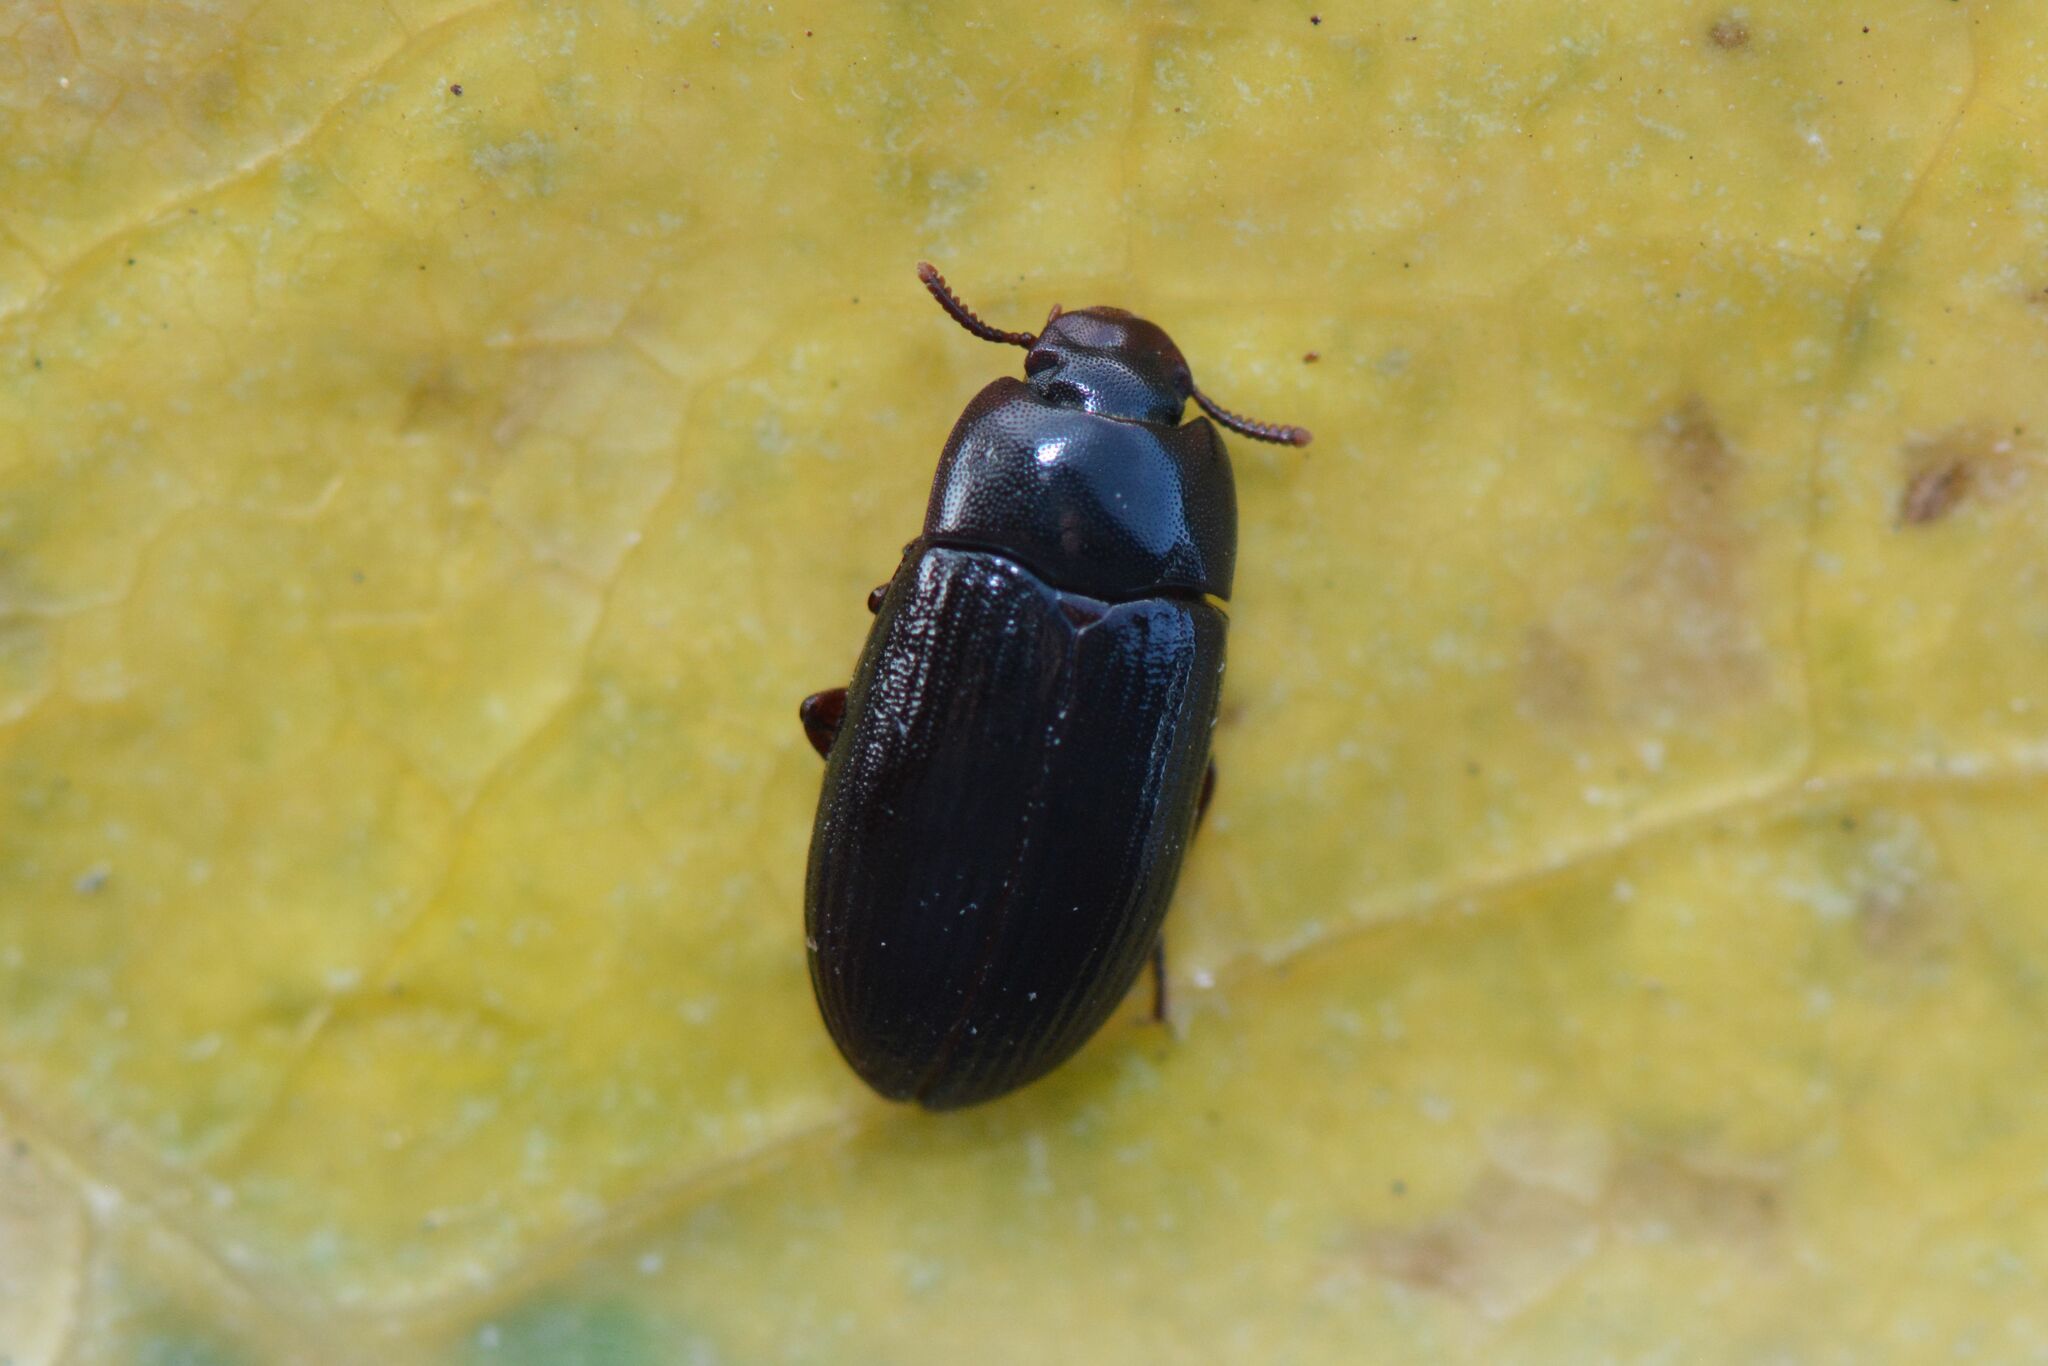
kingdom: Animalia
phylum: Arthropoda
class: Insecta
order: Coleoptera
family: Tenebrionidae
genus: Alphitobius
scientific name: Alphitobius diaperinus
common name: Lesser mealworm
